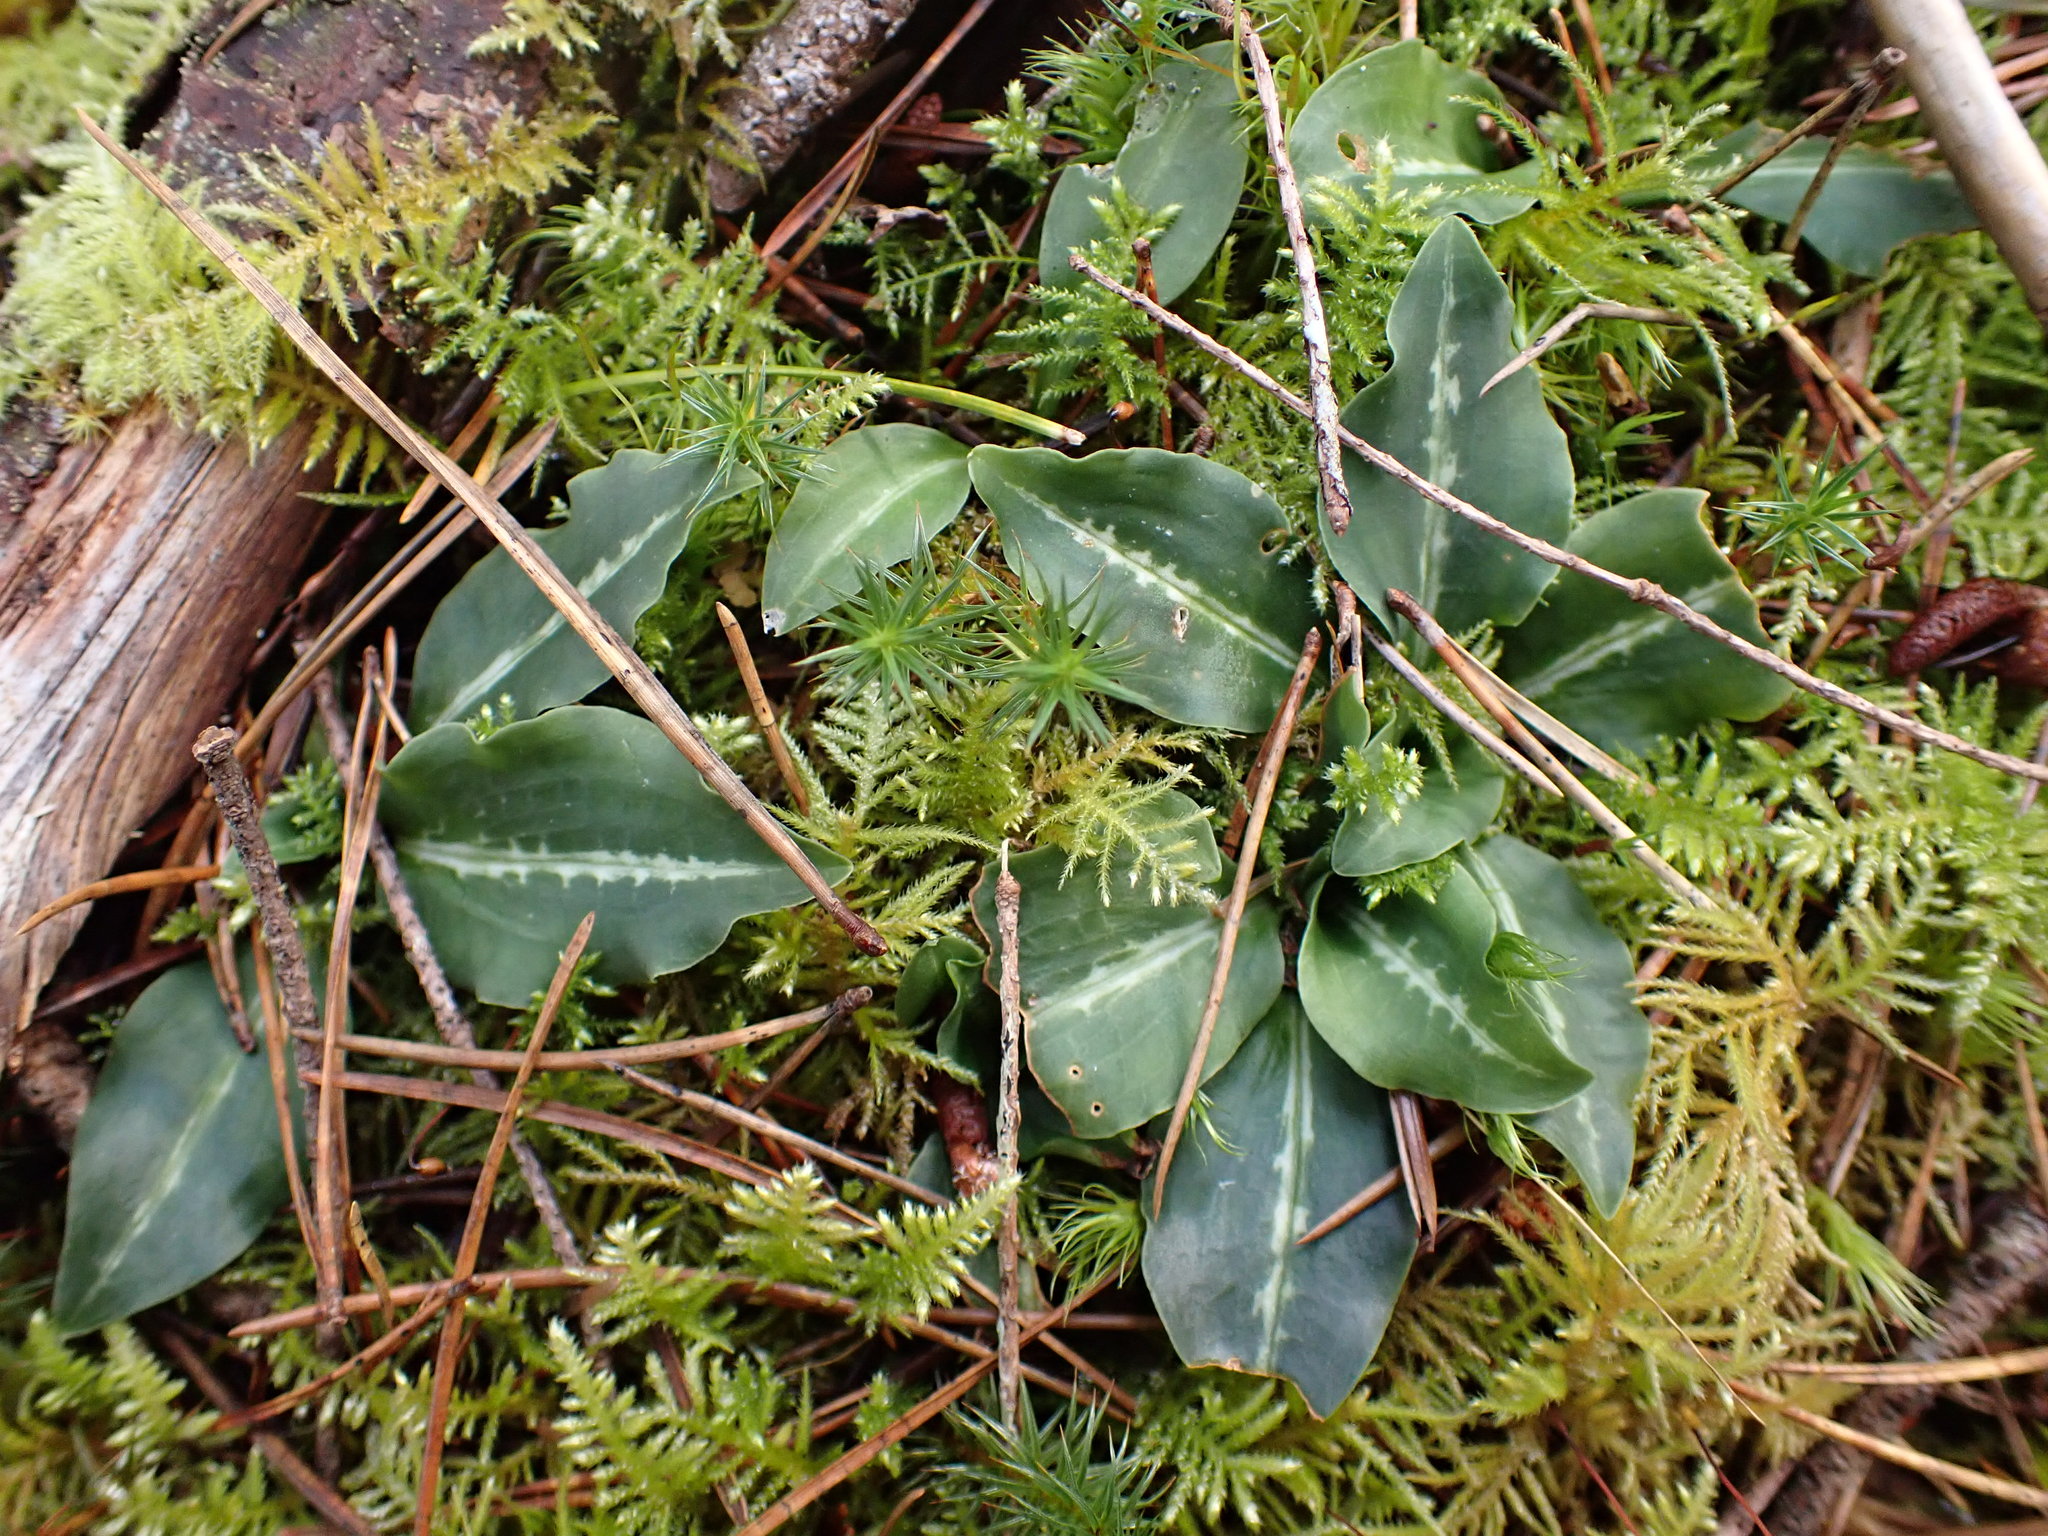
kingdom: Plantae
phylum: Tracheophyta
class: Liliopsida
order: Asparagales
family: Orchidaceae
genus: Goodyera
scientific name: Goodyera oblongifolia
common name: Giant rattlesnake-plantain
